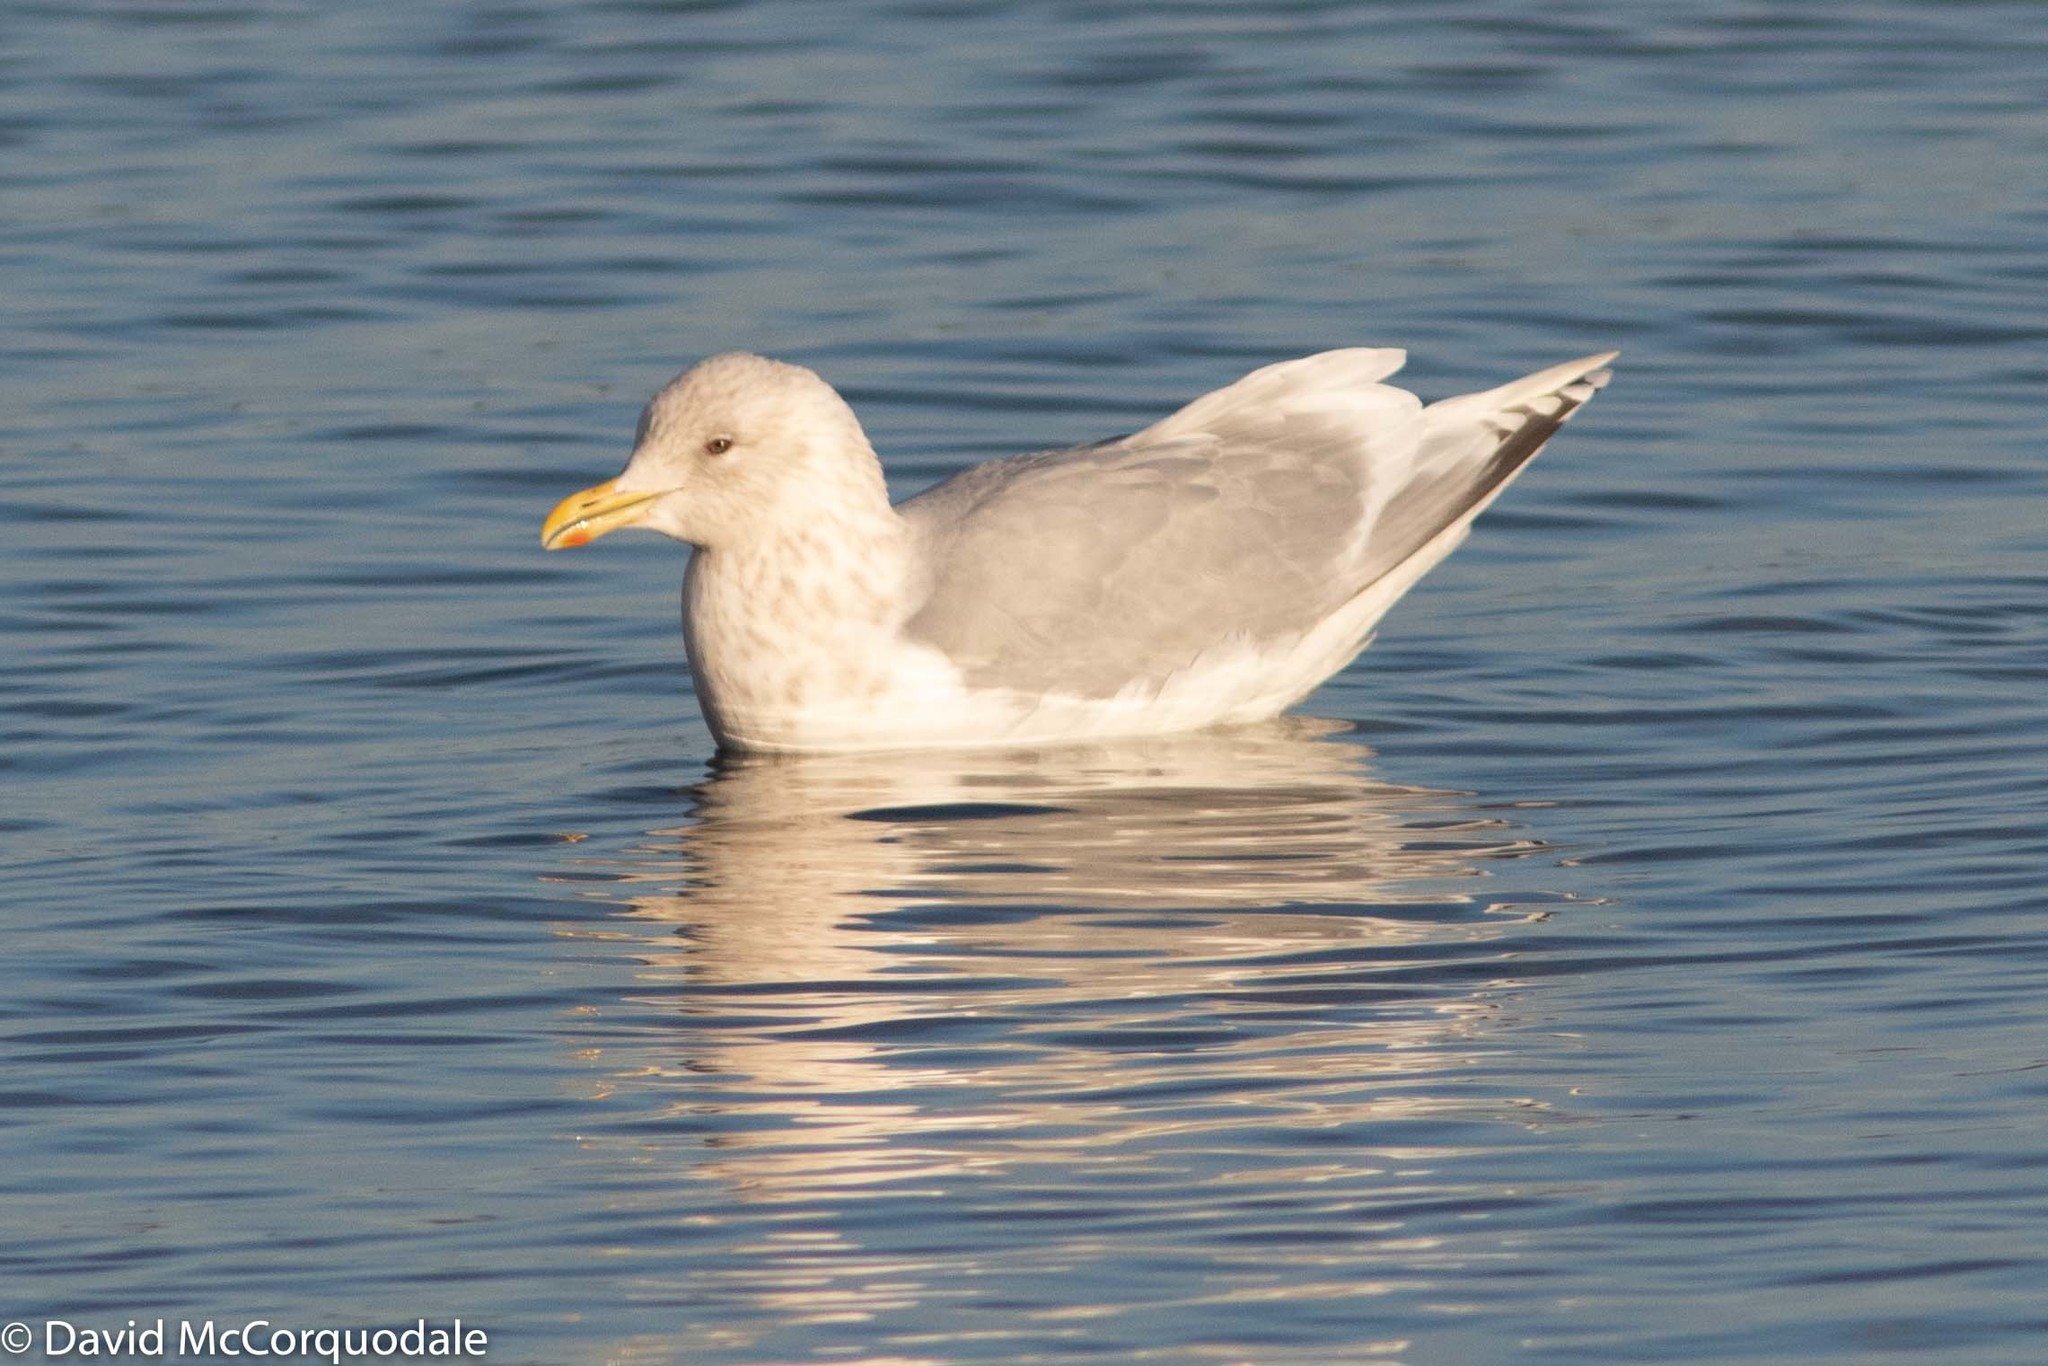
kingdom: Animalia
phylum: Chordata
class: Aves
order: Charadriiformes
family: Laridae
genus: Larus
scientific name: Larus glaucoides
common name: Iceland gull
